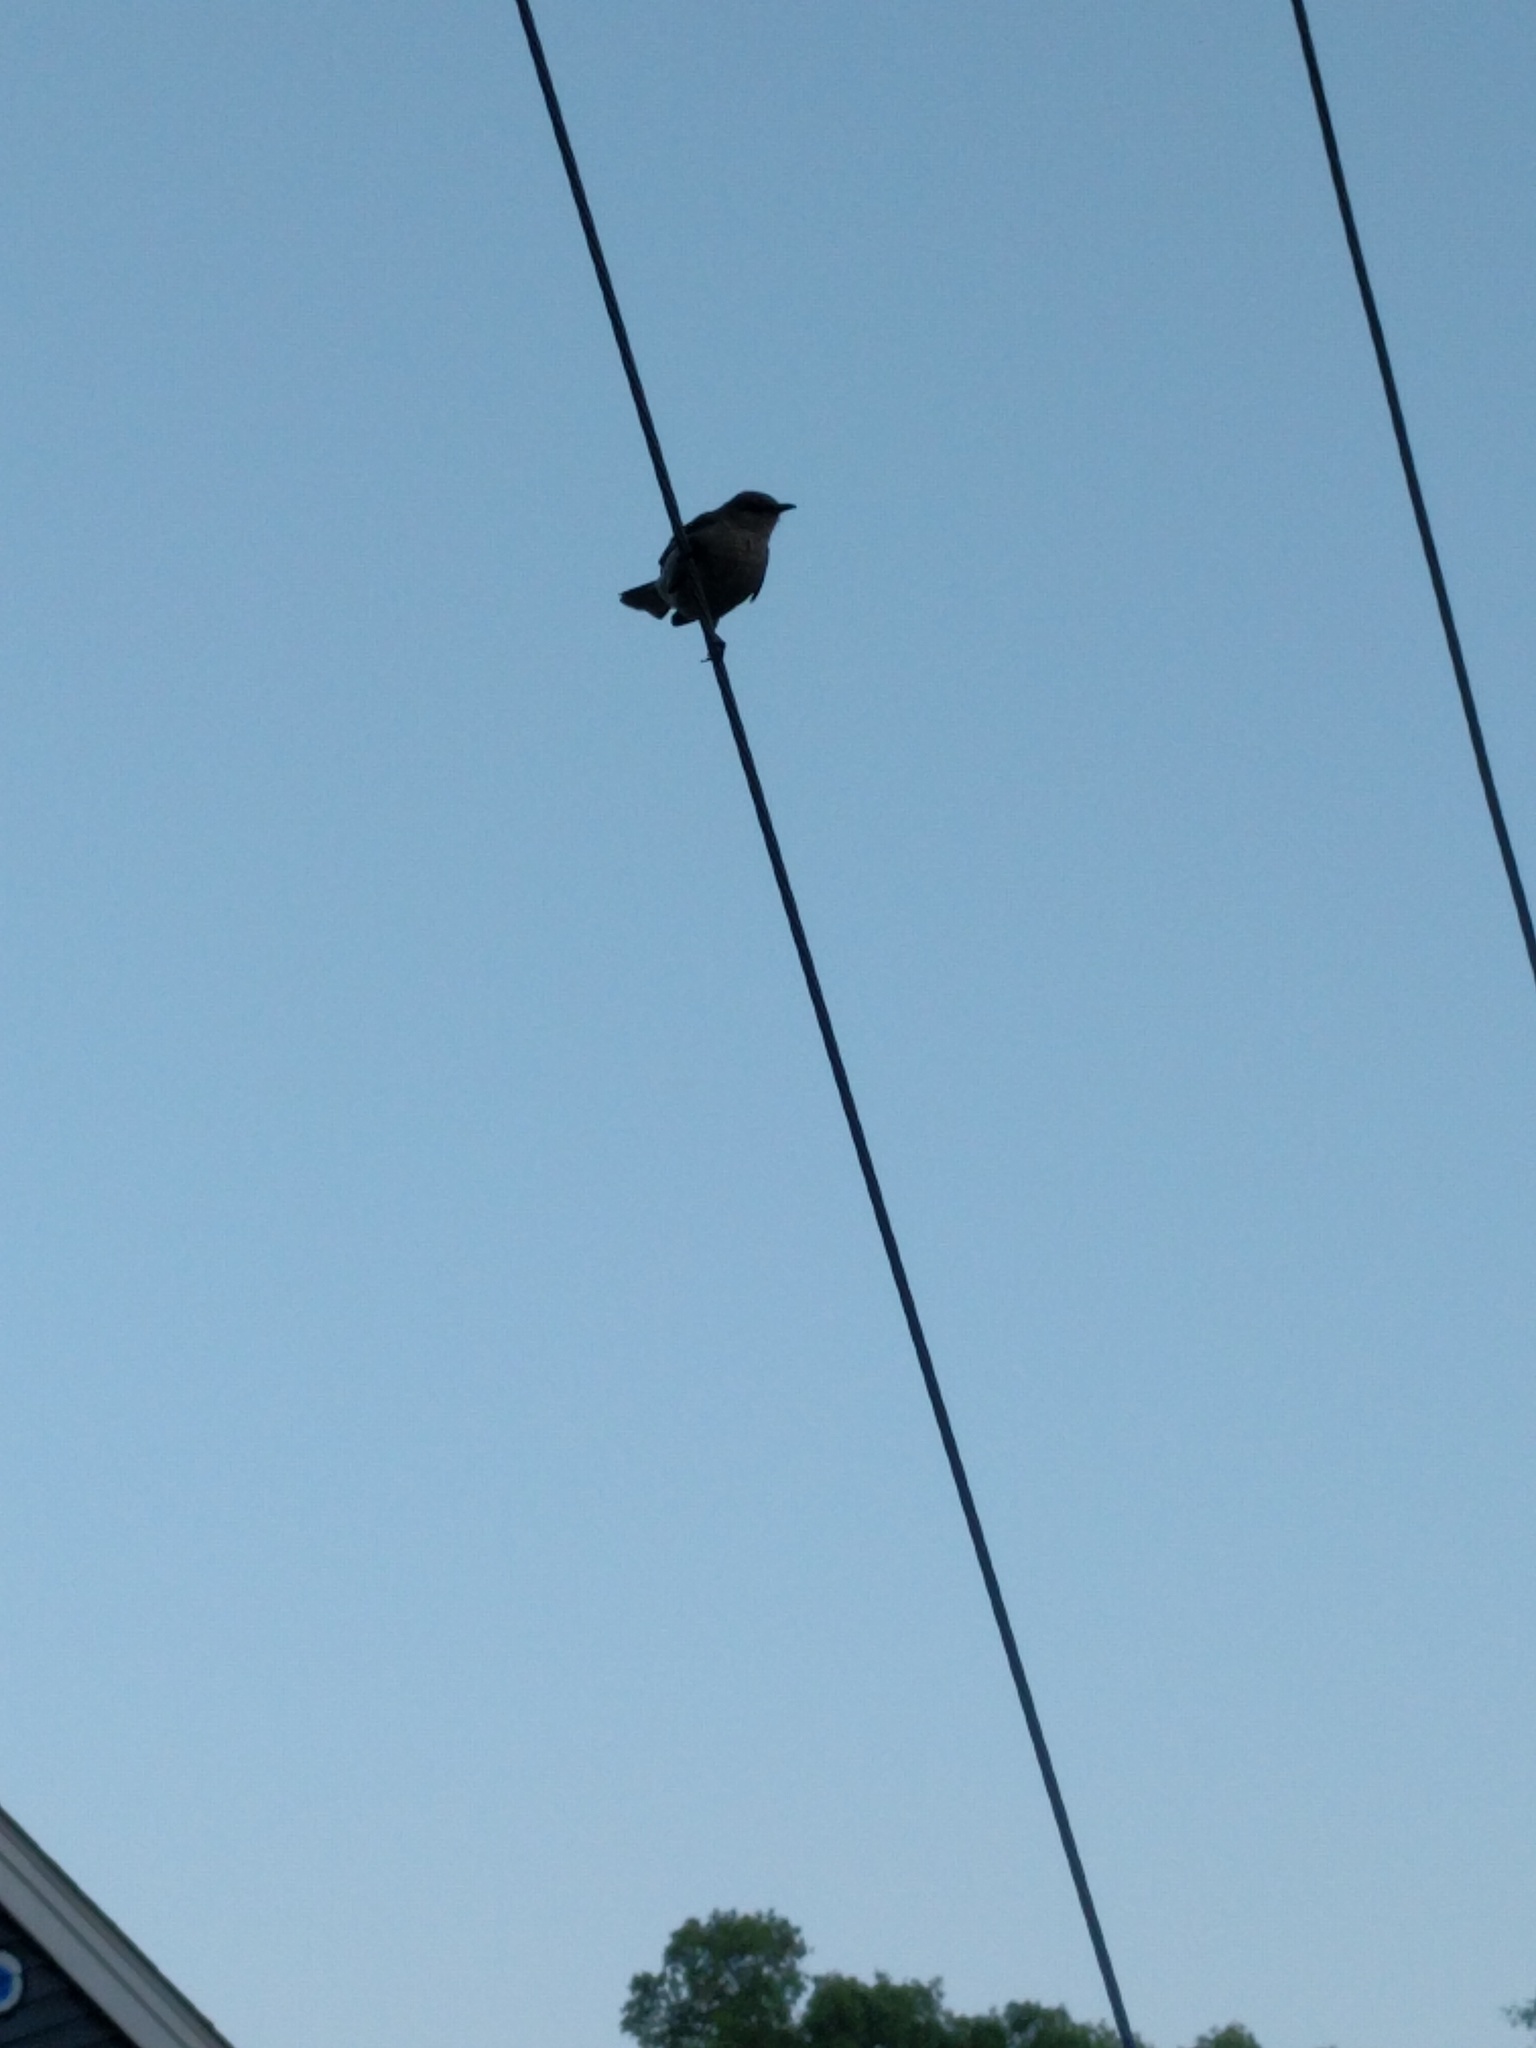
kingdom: Animalia
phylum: Chordata
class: Aves
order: Passeriformes
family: Mimidae
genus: Mimus
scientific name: Mimus polyglottos
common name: Northern mockingbird
